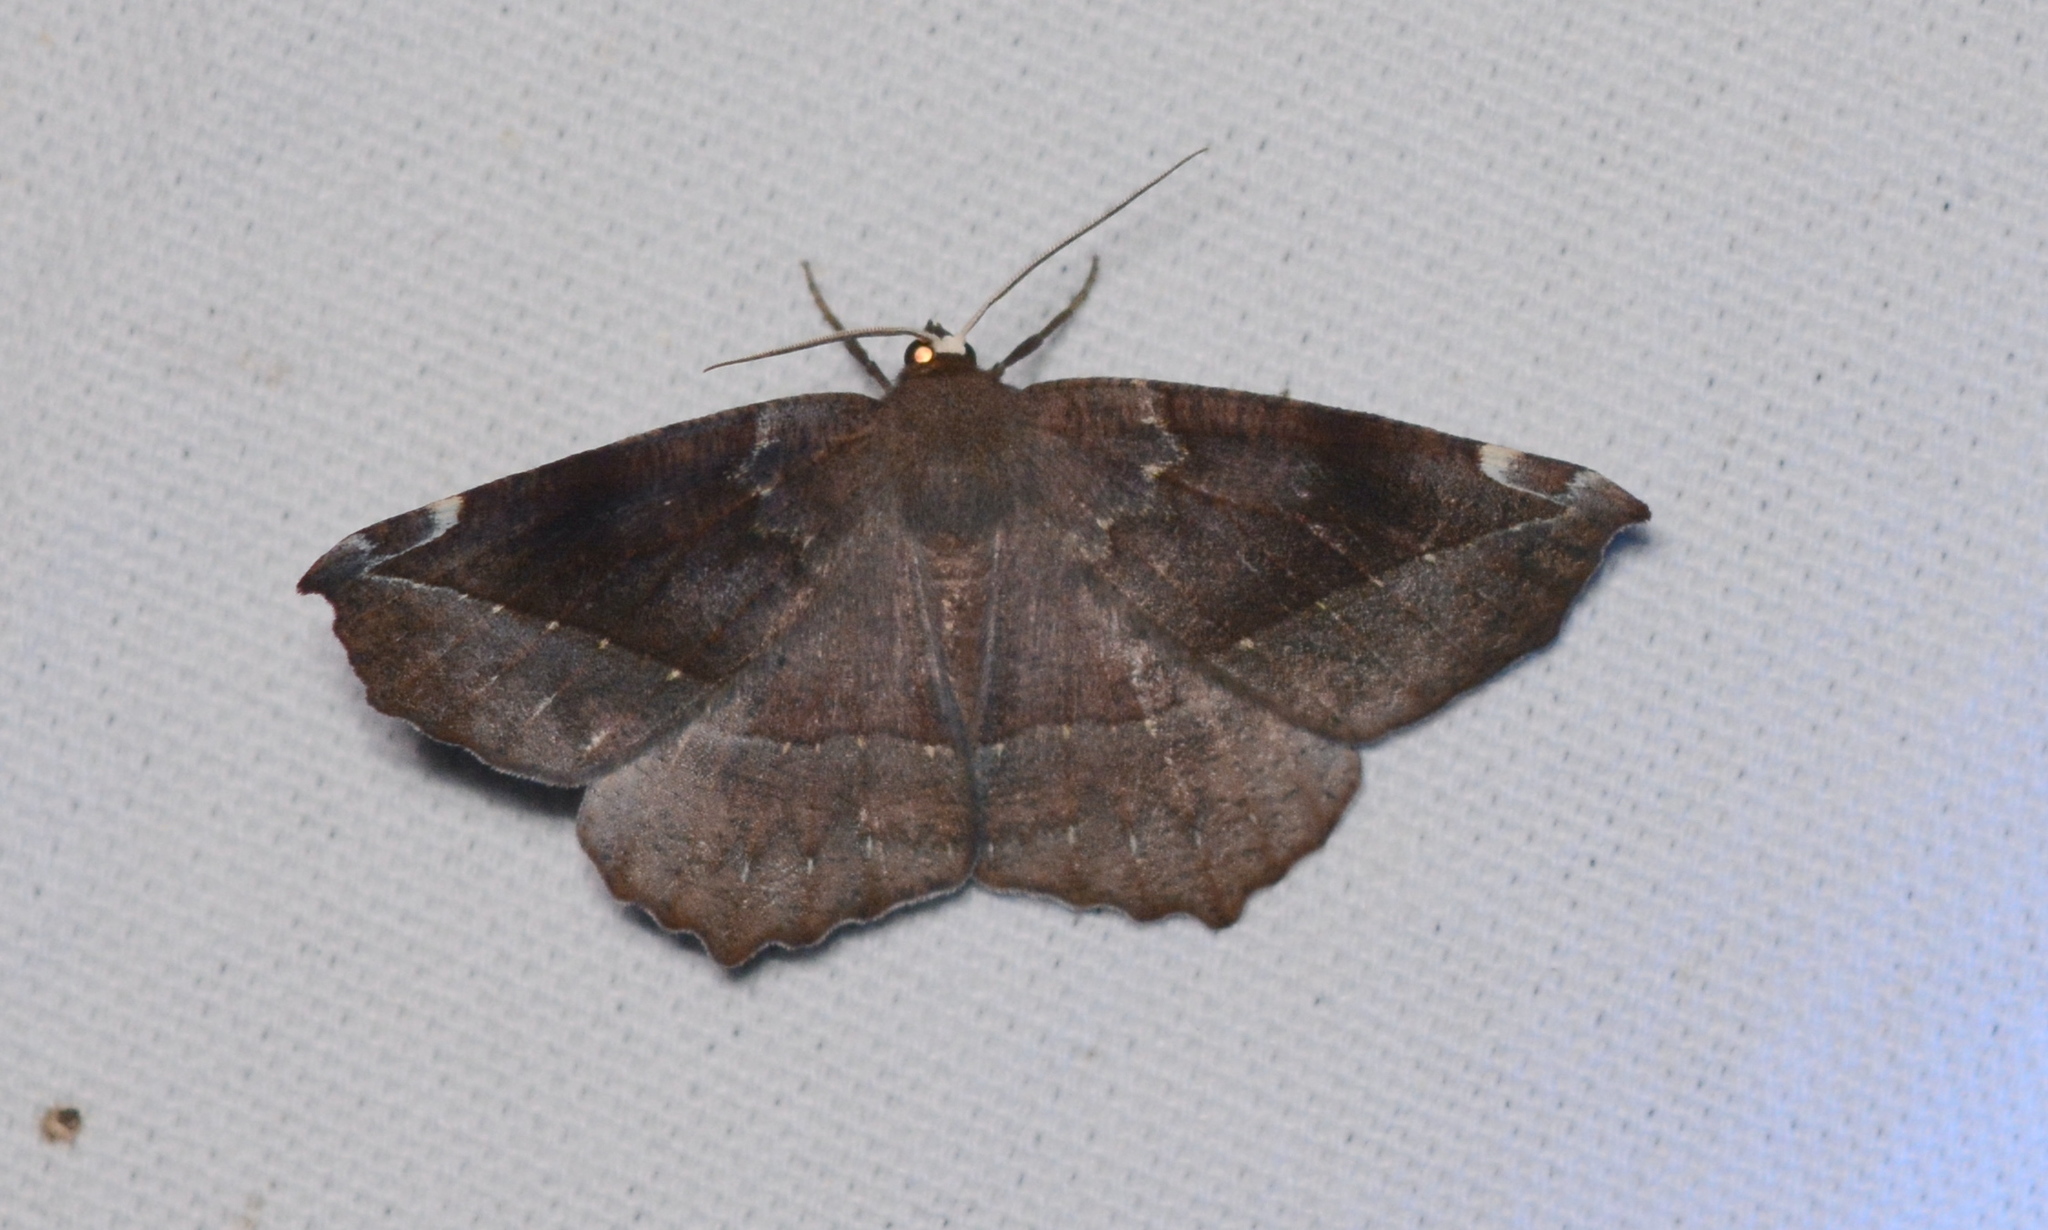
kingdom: Animalia
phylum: Arthropoda
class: Insecta
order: Lepidoptera
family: Geometridae
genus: Eutrapela
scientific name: Eutrapela clemataria
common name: Curved-toothed geometer
